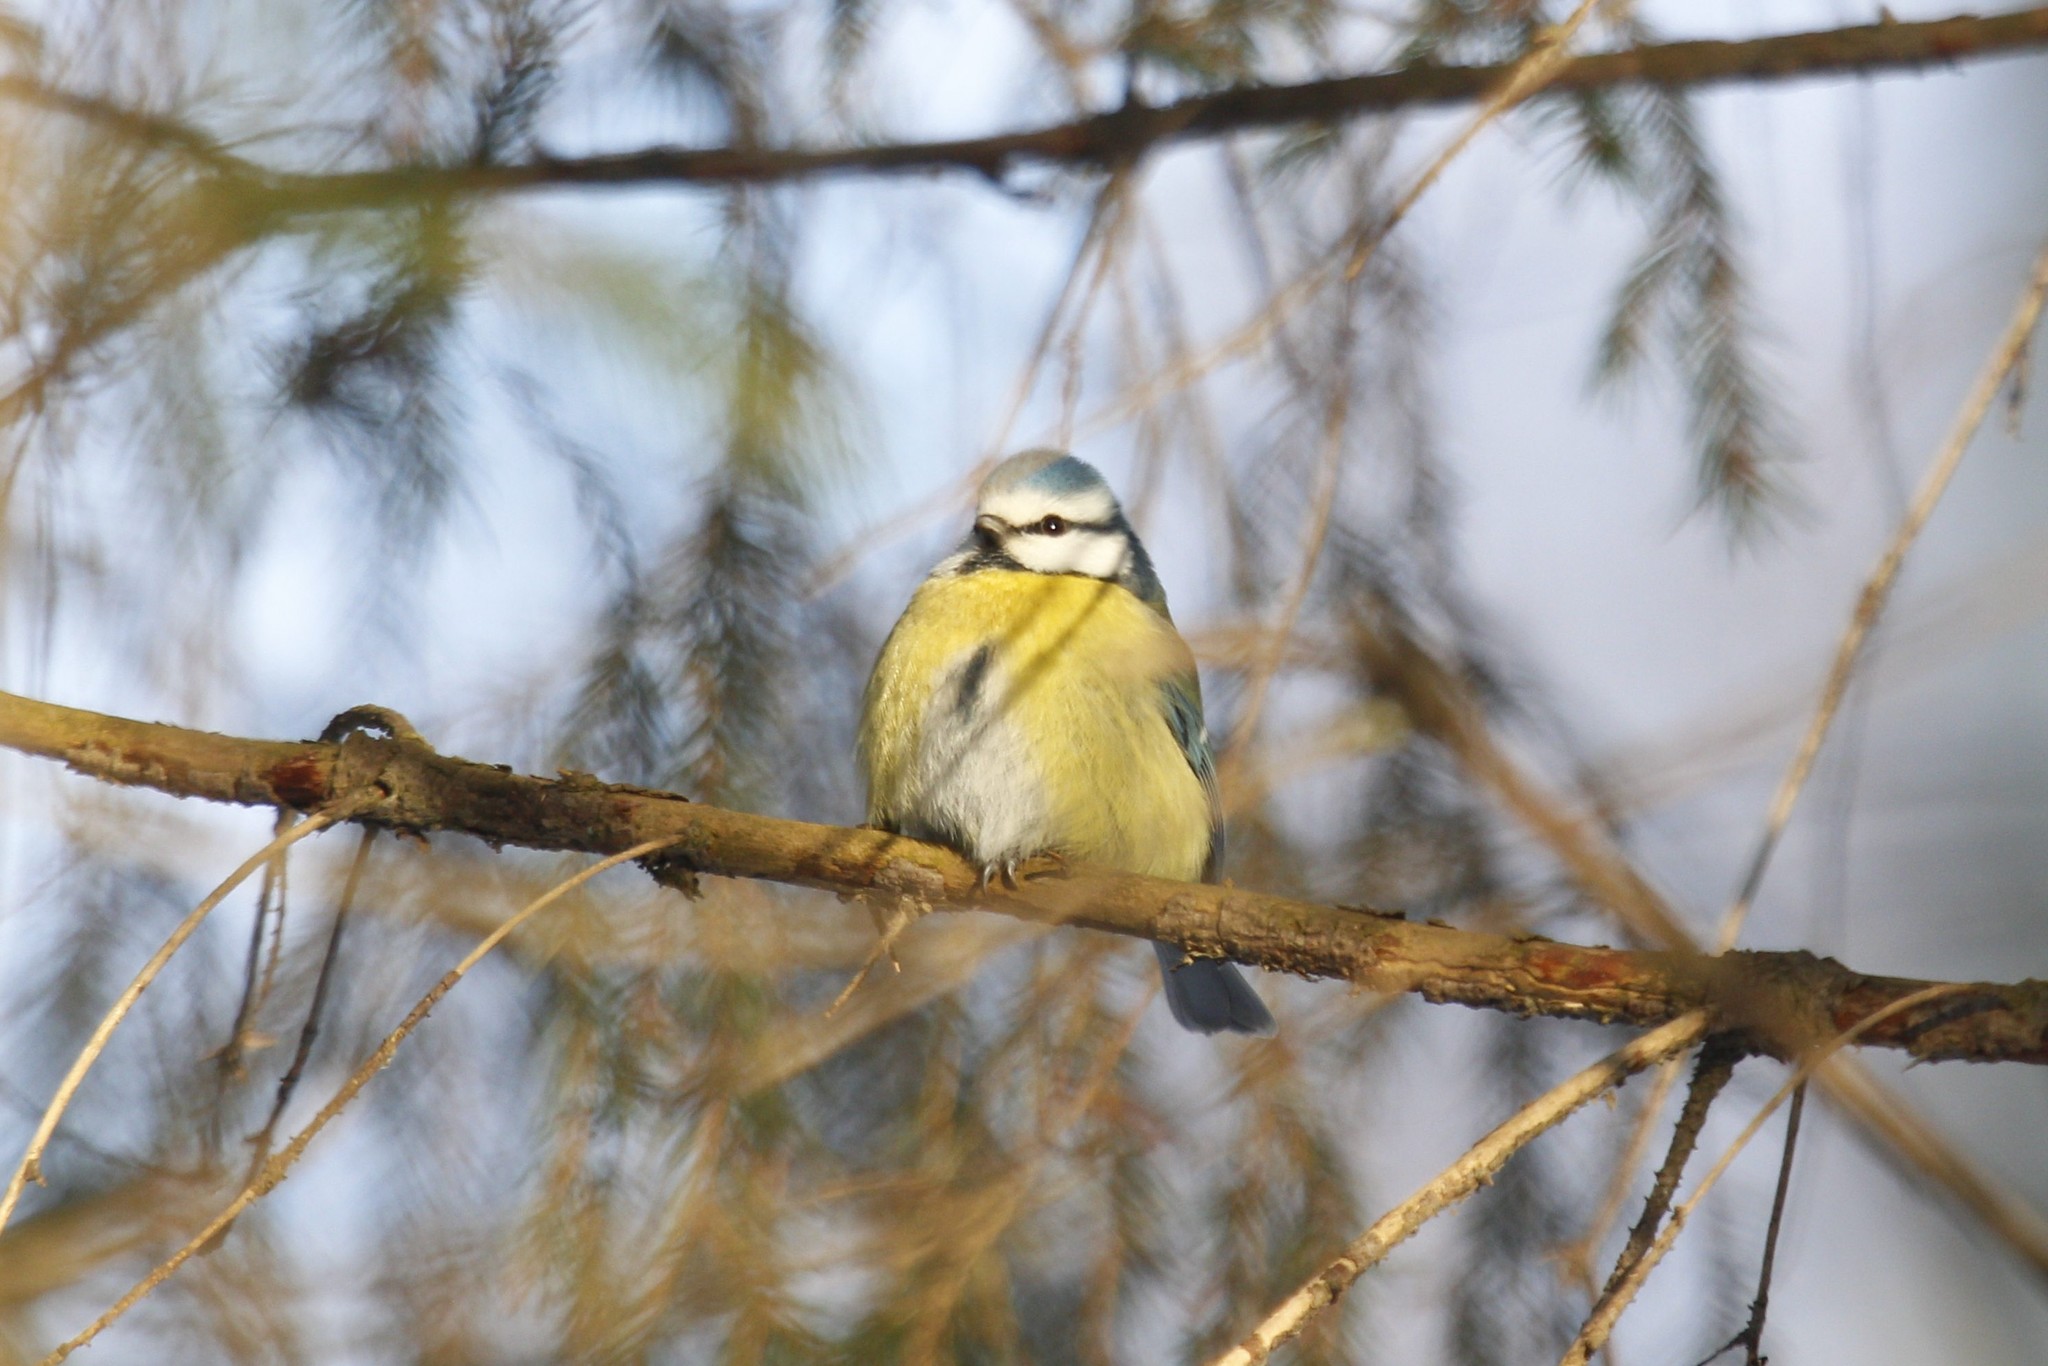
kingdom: Animalia
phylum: Chordata
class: Aves
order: Passeriformes
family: Paridae
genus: Cyanistes
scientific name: Cyanistes caeruleus
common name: Eurasian blue tit
